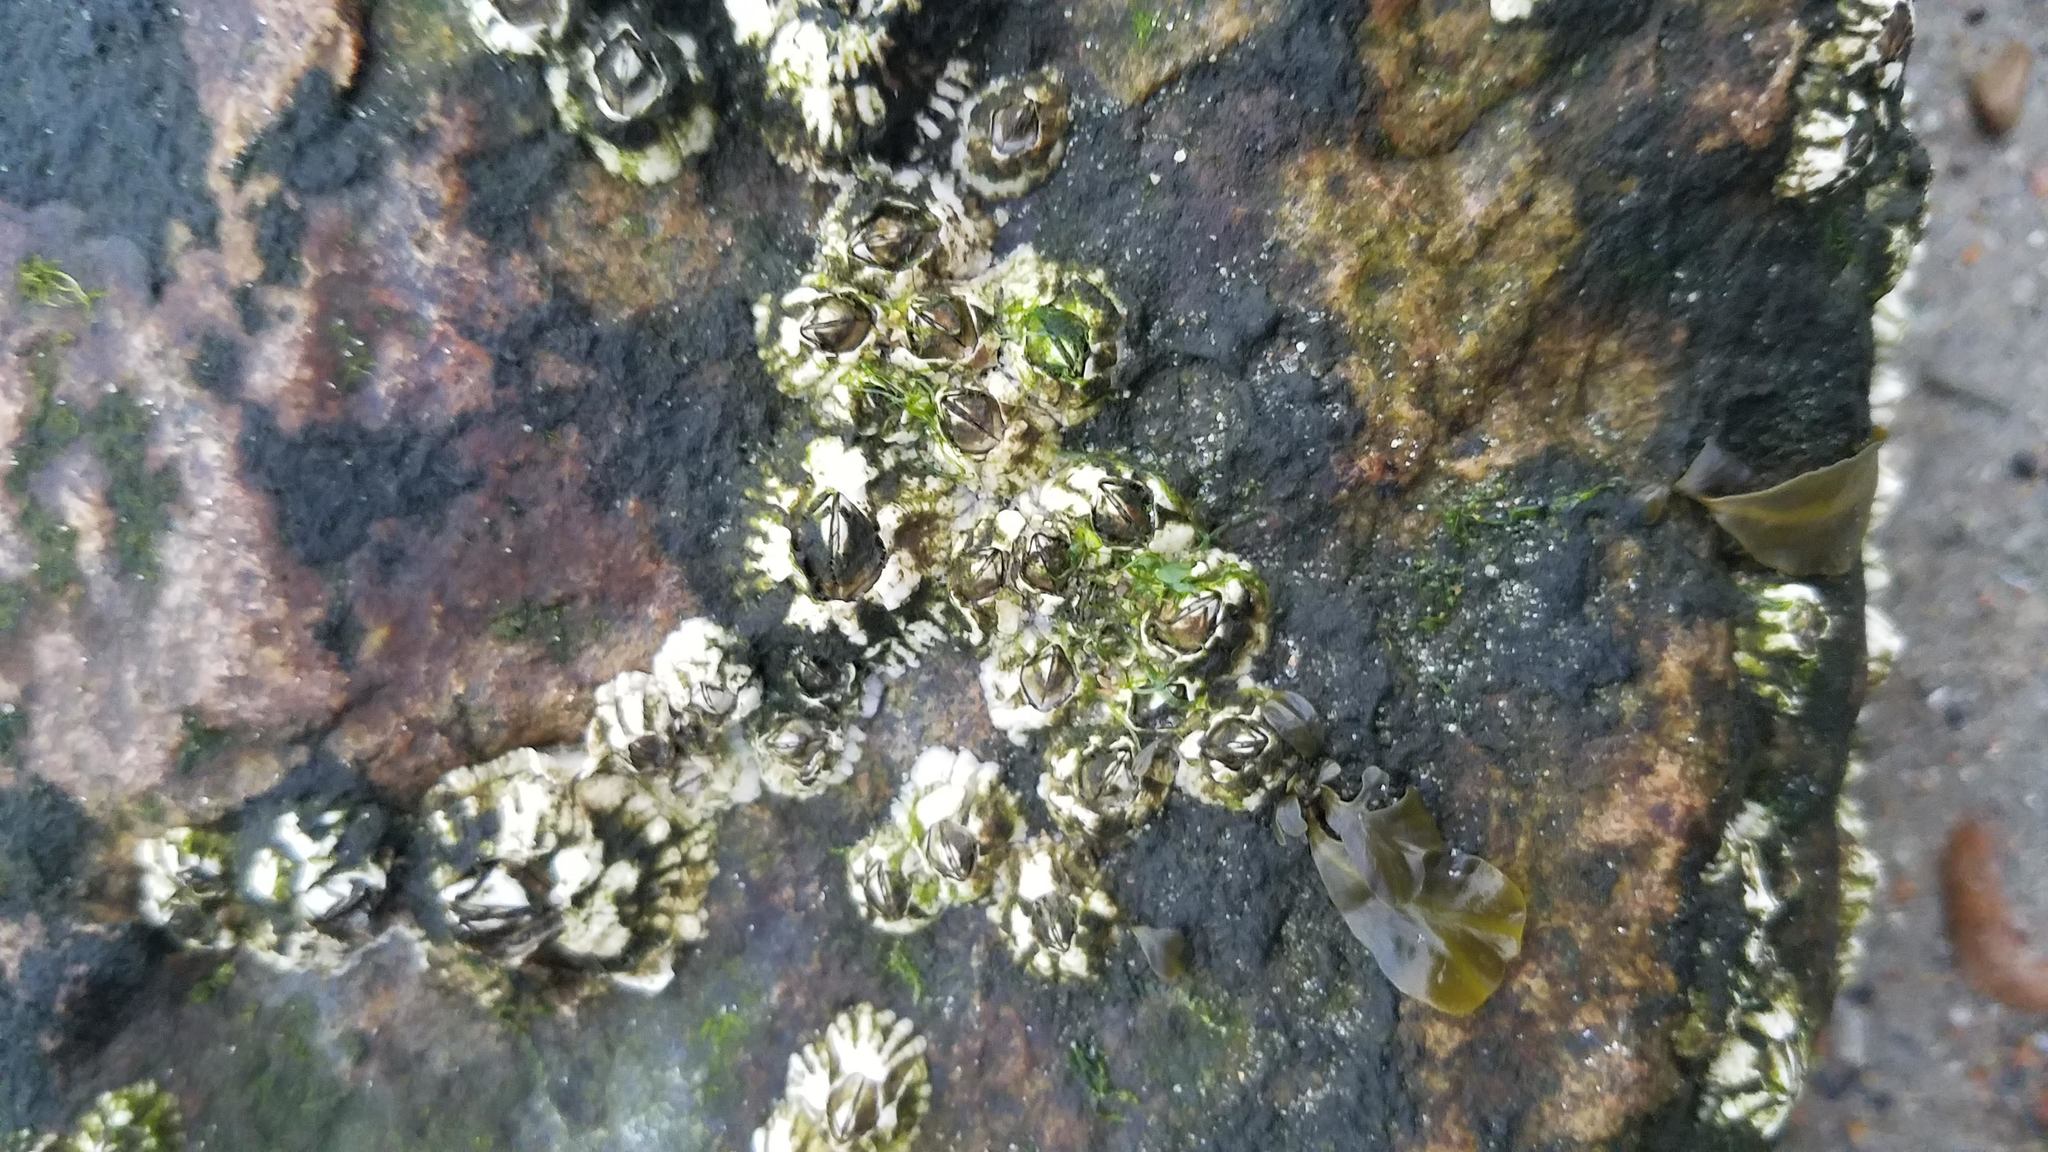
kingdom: Animalia
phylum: Arthropoda
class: Maxillopoda
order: Sessilia
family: Archaeobalanidae
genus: Semibalanus
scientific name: Semibalanus balanoides
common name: Acorn barnacle
